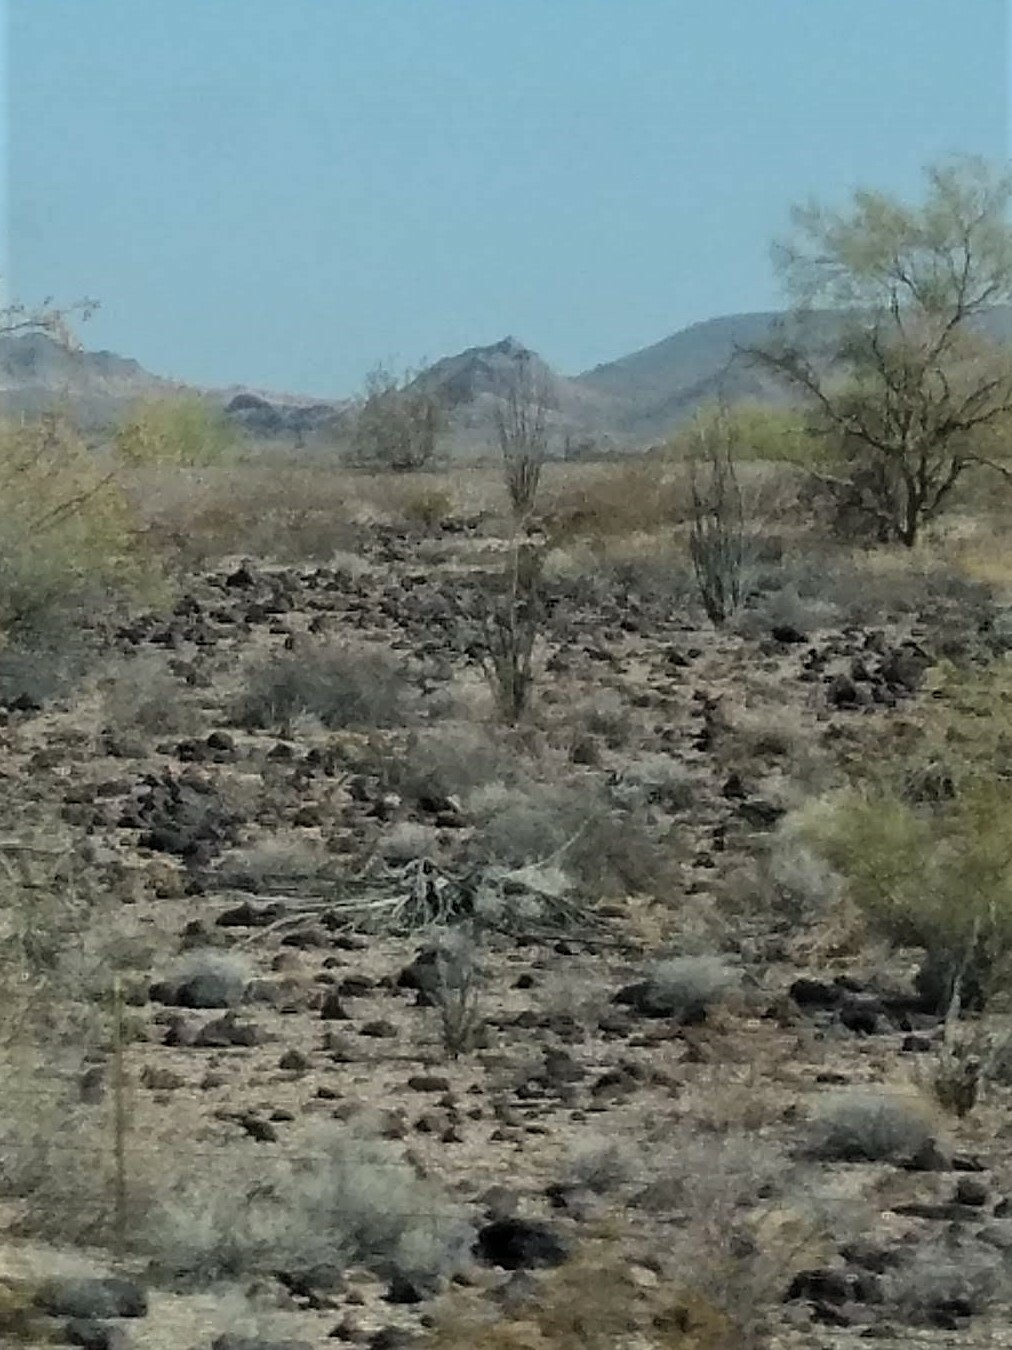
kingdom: Plantae
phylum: Tracheophyta
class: Magnoliopsida
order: Ericales
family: Fouquieriaceae
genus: Fouquieria
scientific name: Fouquieria splendens
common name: Vine-cactus
